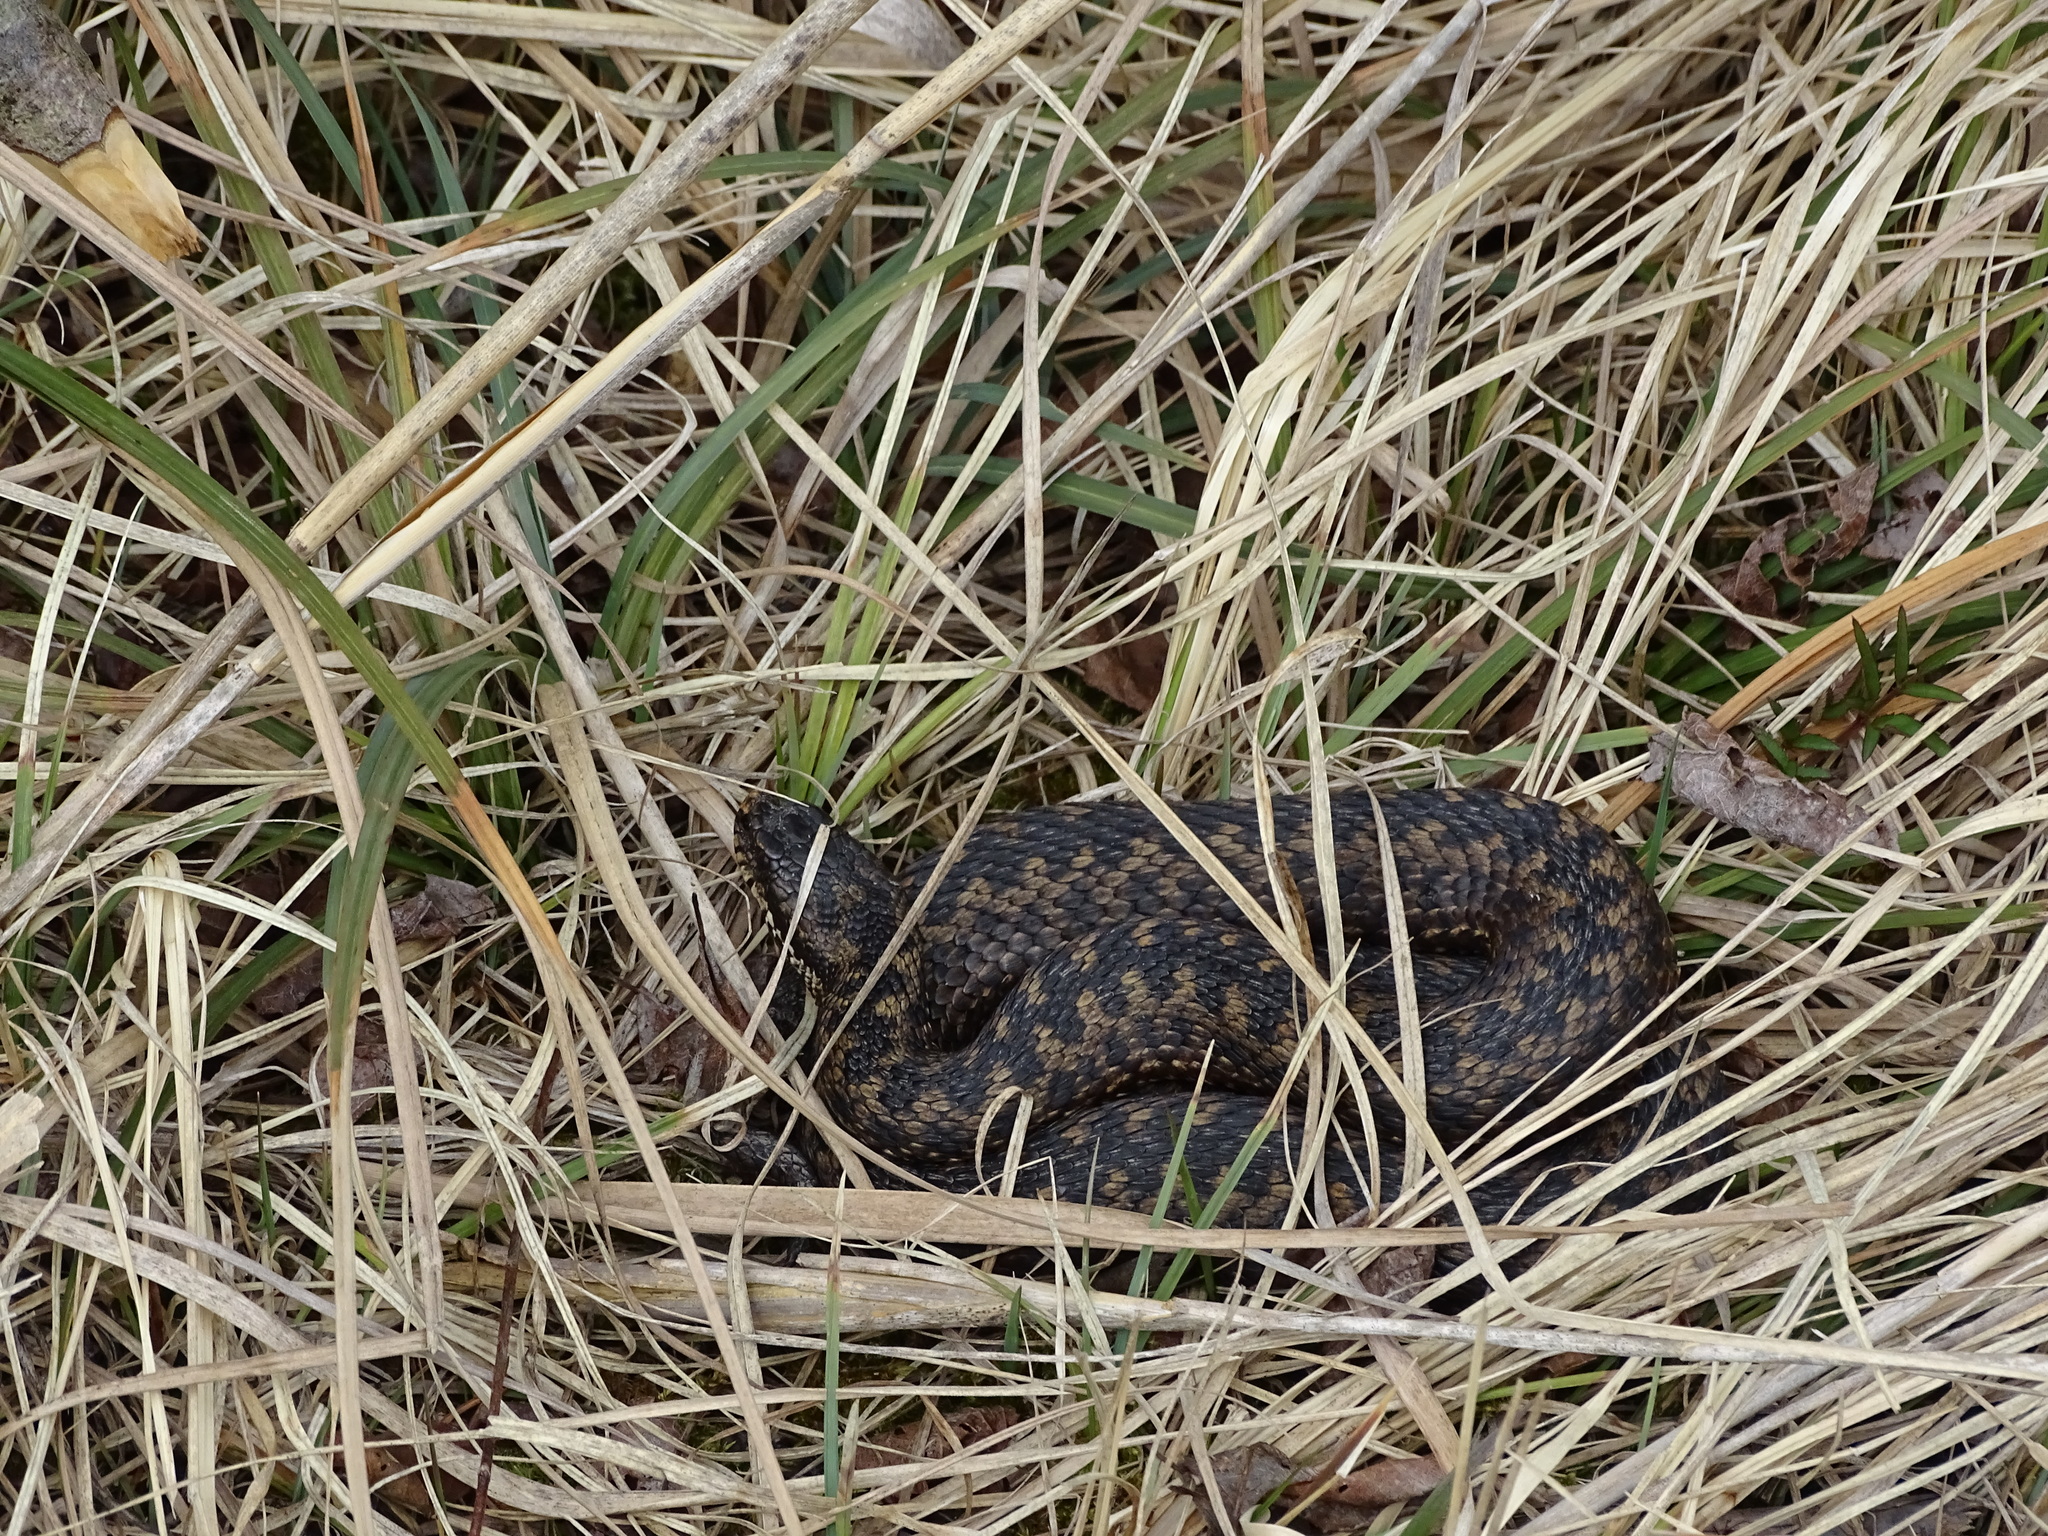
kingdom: Animalia
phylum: Chordata
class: Squamata
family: Viperidae
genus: Vipera
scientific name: Vipera berus
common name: Adder
